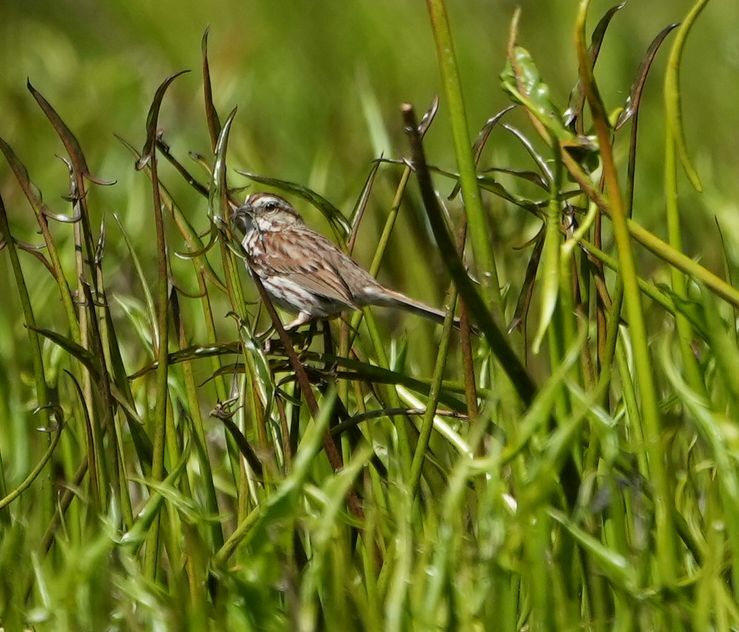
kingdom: Animalia
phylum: Chordata
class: Aves
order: Passeriformes
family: Passerellidae
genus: Melospiza
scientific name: Melospiza melodia
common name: Song sparrow
